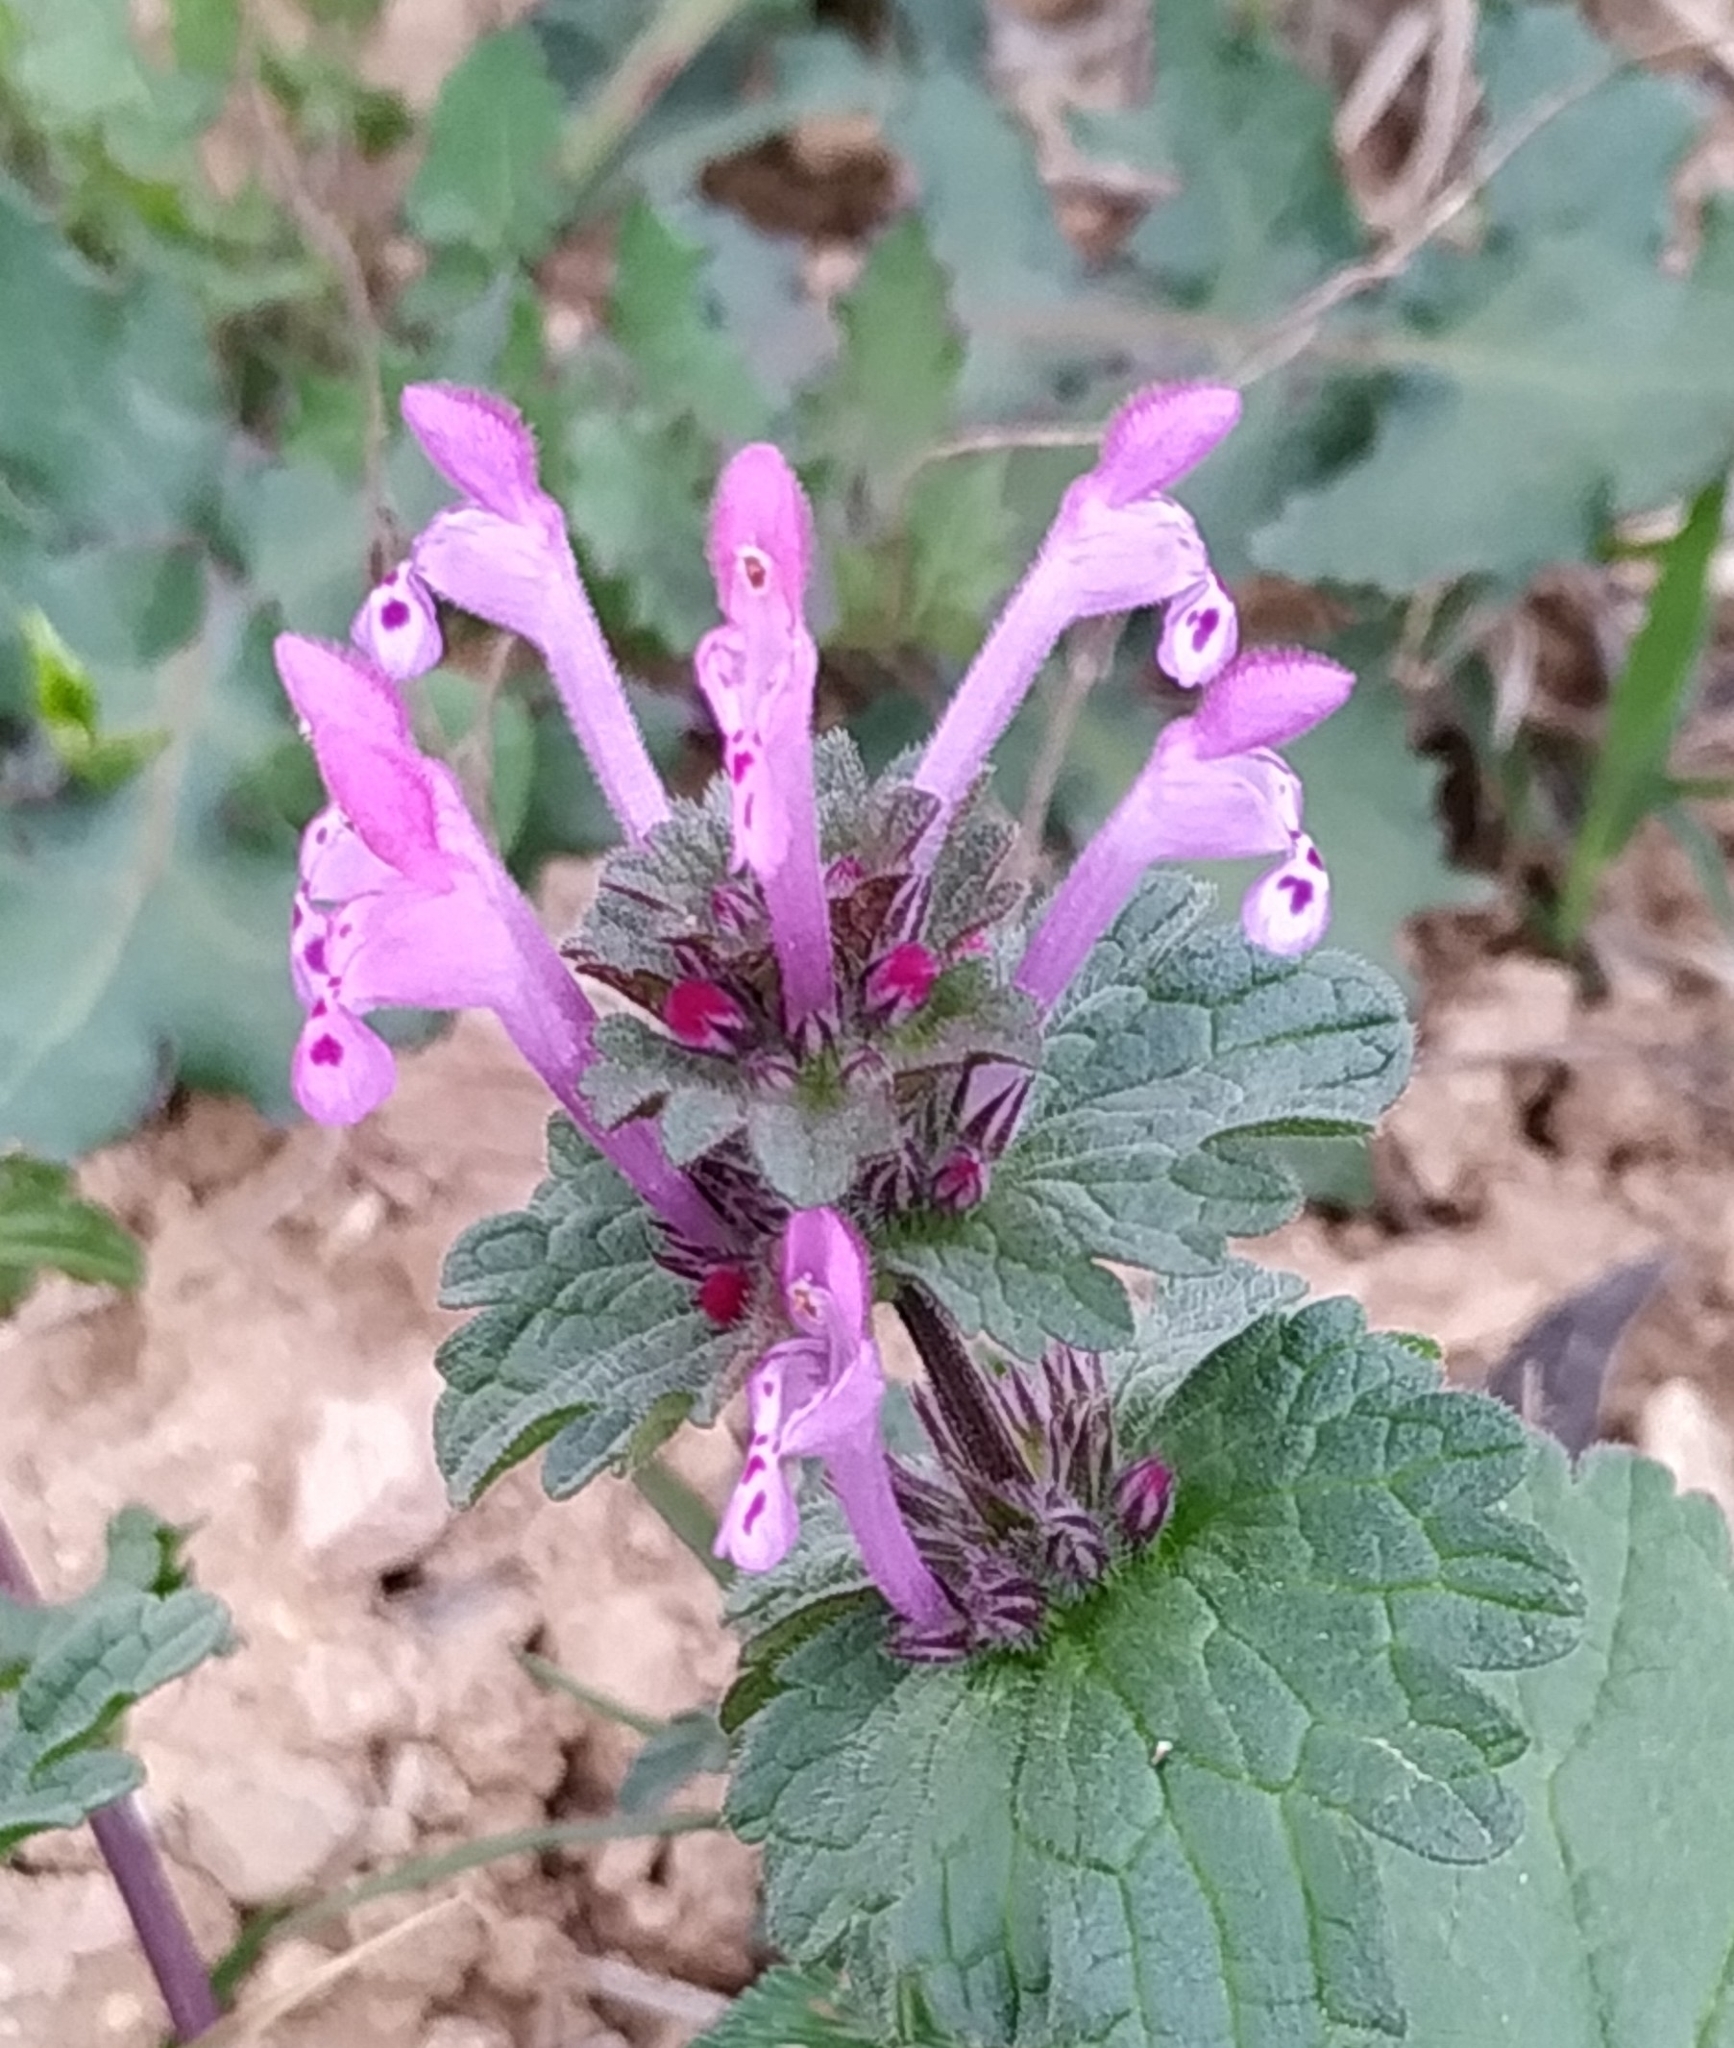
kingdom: Plantae
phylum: Tracheophyta
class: Magnoliopsida
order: Lamiales
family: Lamiaceae
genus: Lamium
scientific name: Lamium amplexicaule
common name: Henbit dead-nettle
